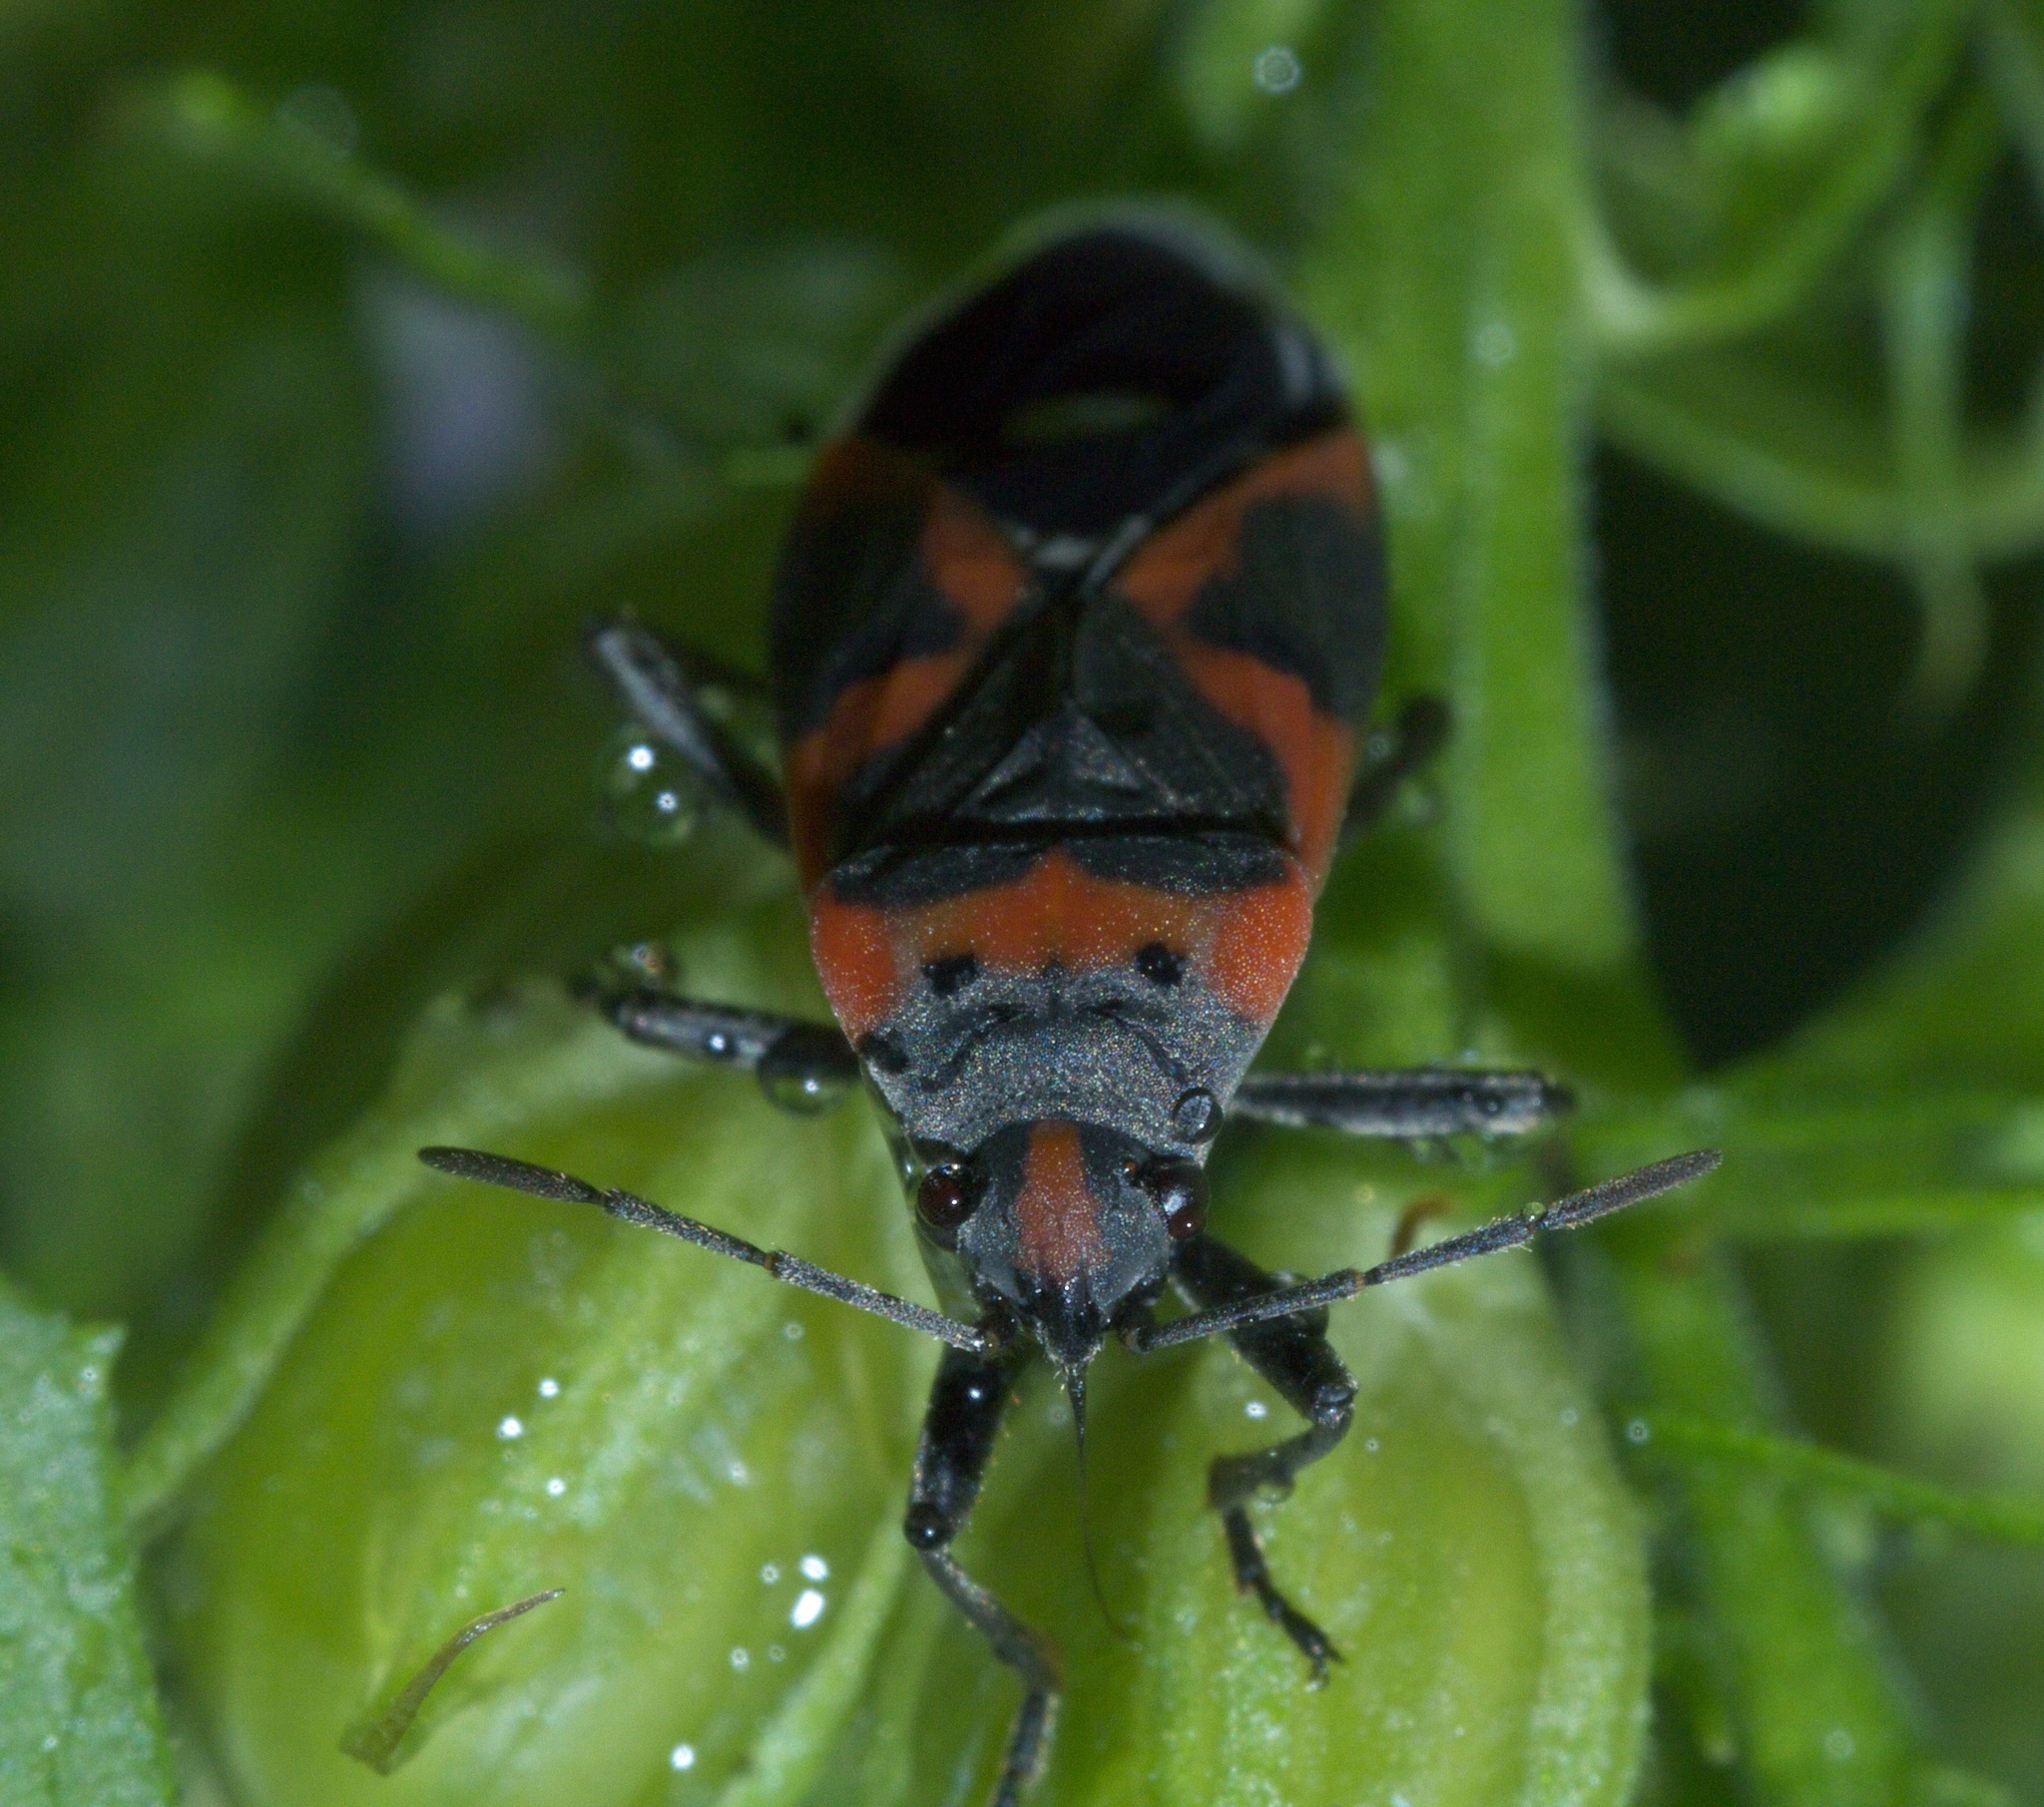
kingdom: Animalia
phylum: Arthropoda
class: Insecta
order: Hemiptera
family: Lygaeidae
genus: Lygaeus
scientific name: Lygaeus kalmii
